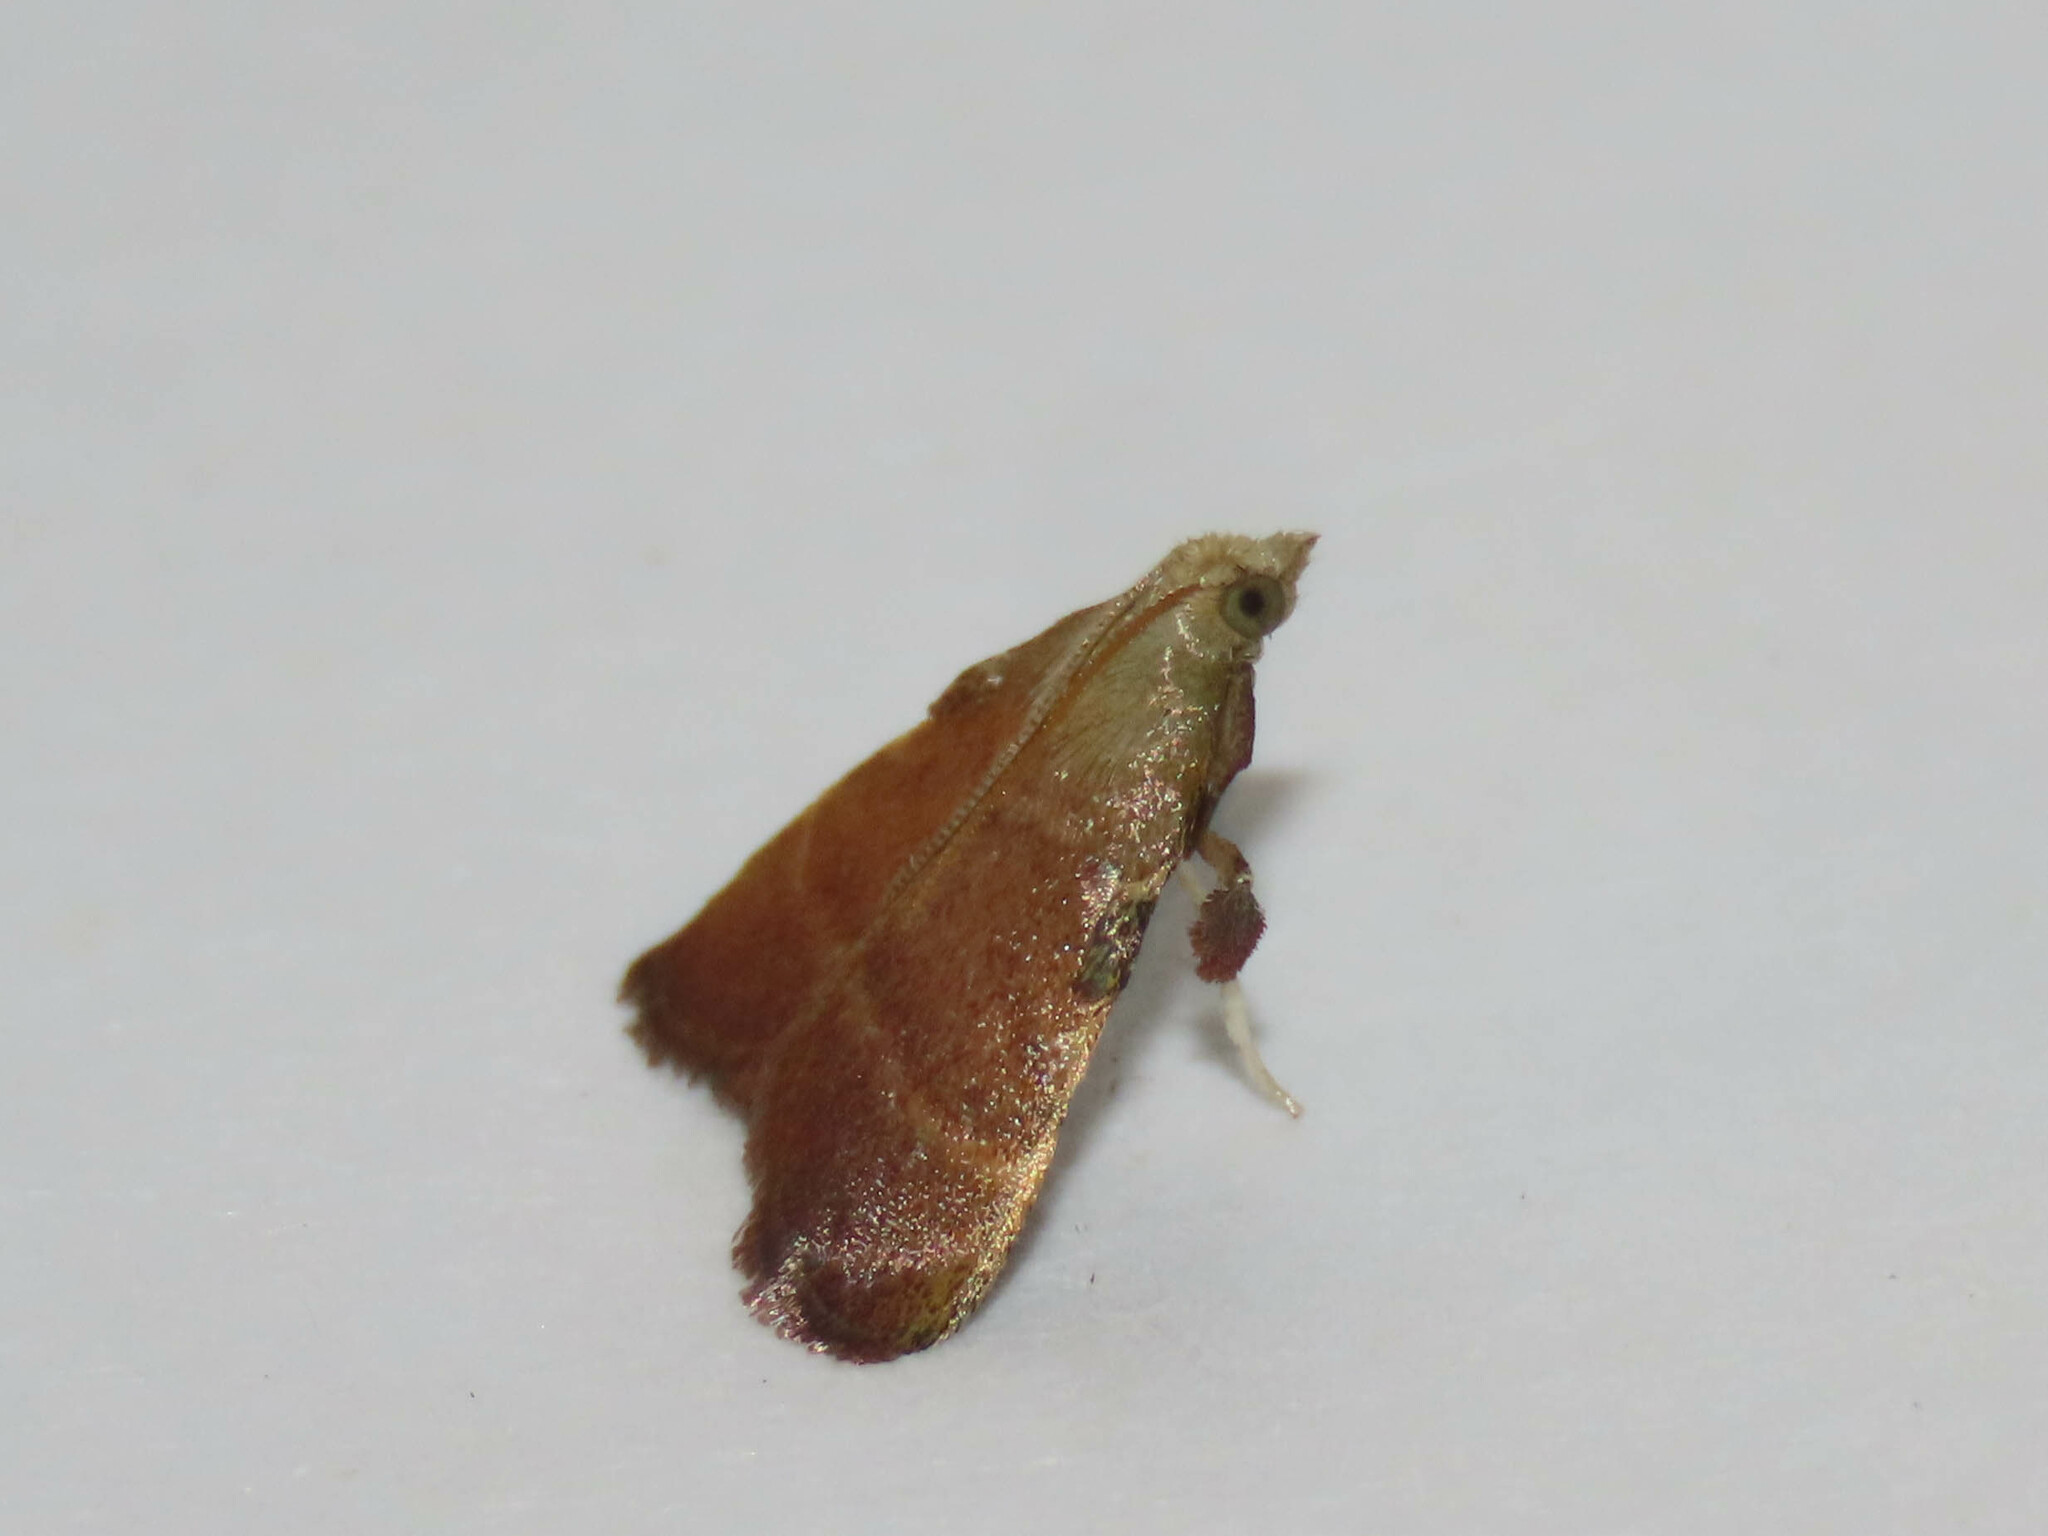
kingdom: Animalia
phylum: Arthropoda
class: Insecta
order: Lepidoptera
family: Pyralidae
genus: Condylolomia
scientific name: Condylolomia participialis
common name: Drab condylolomia moth
